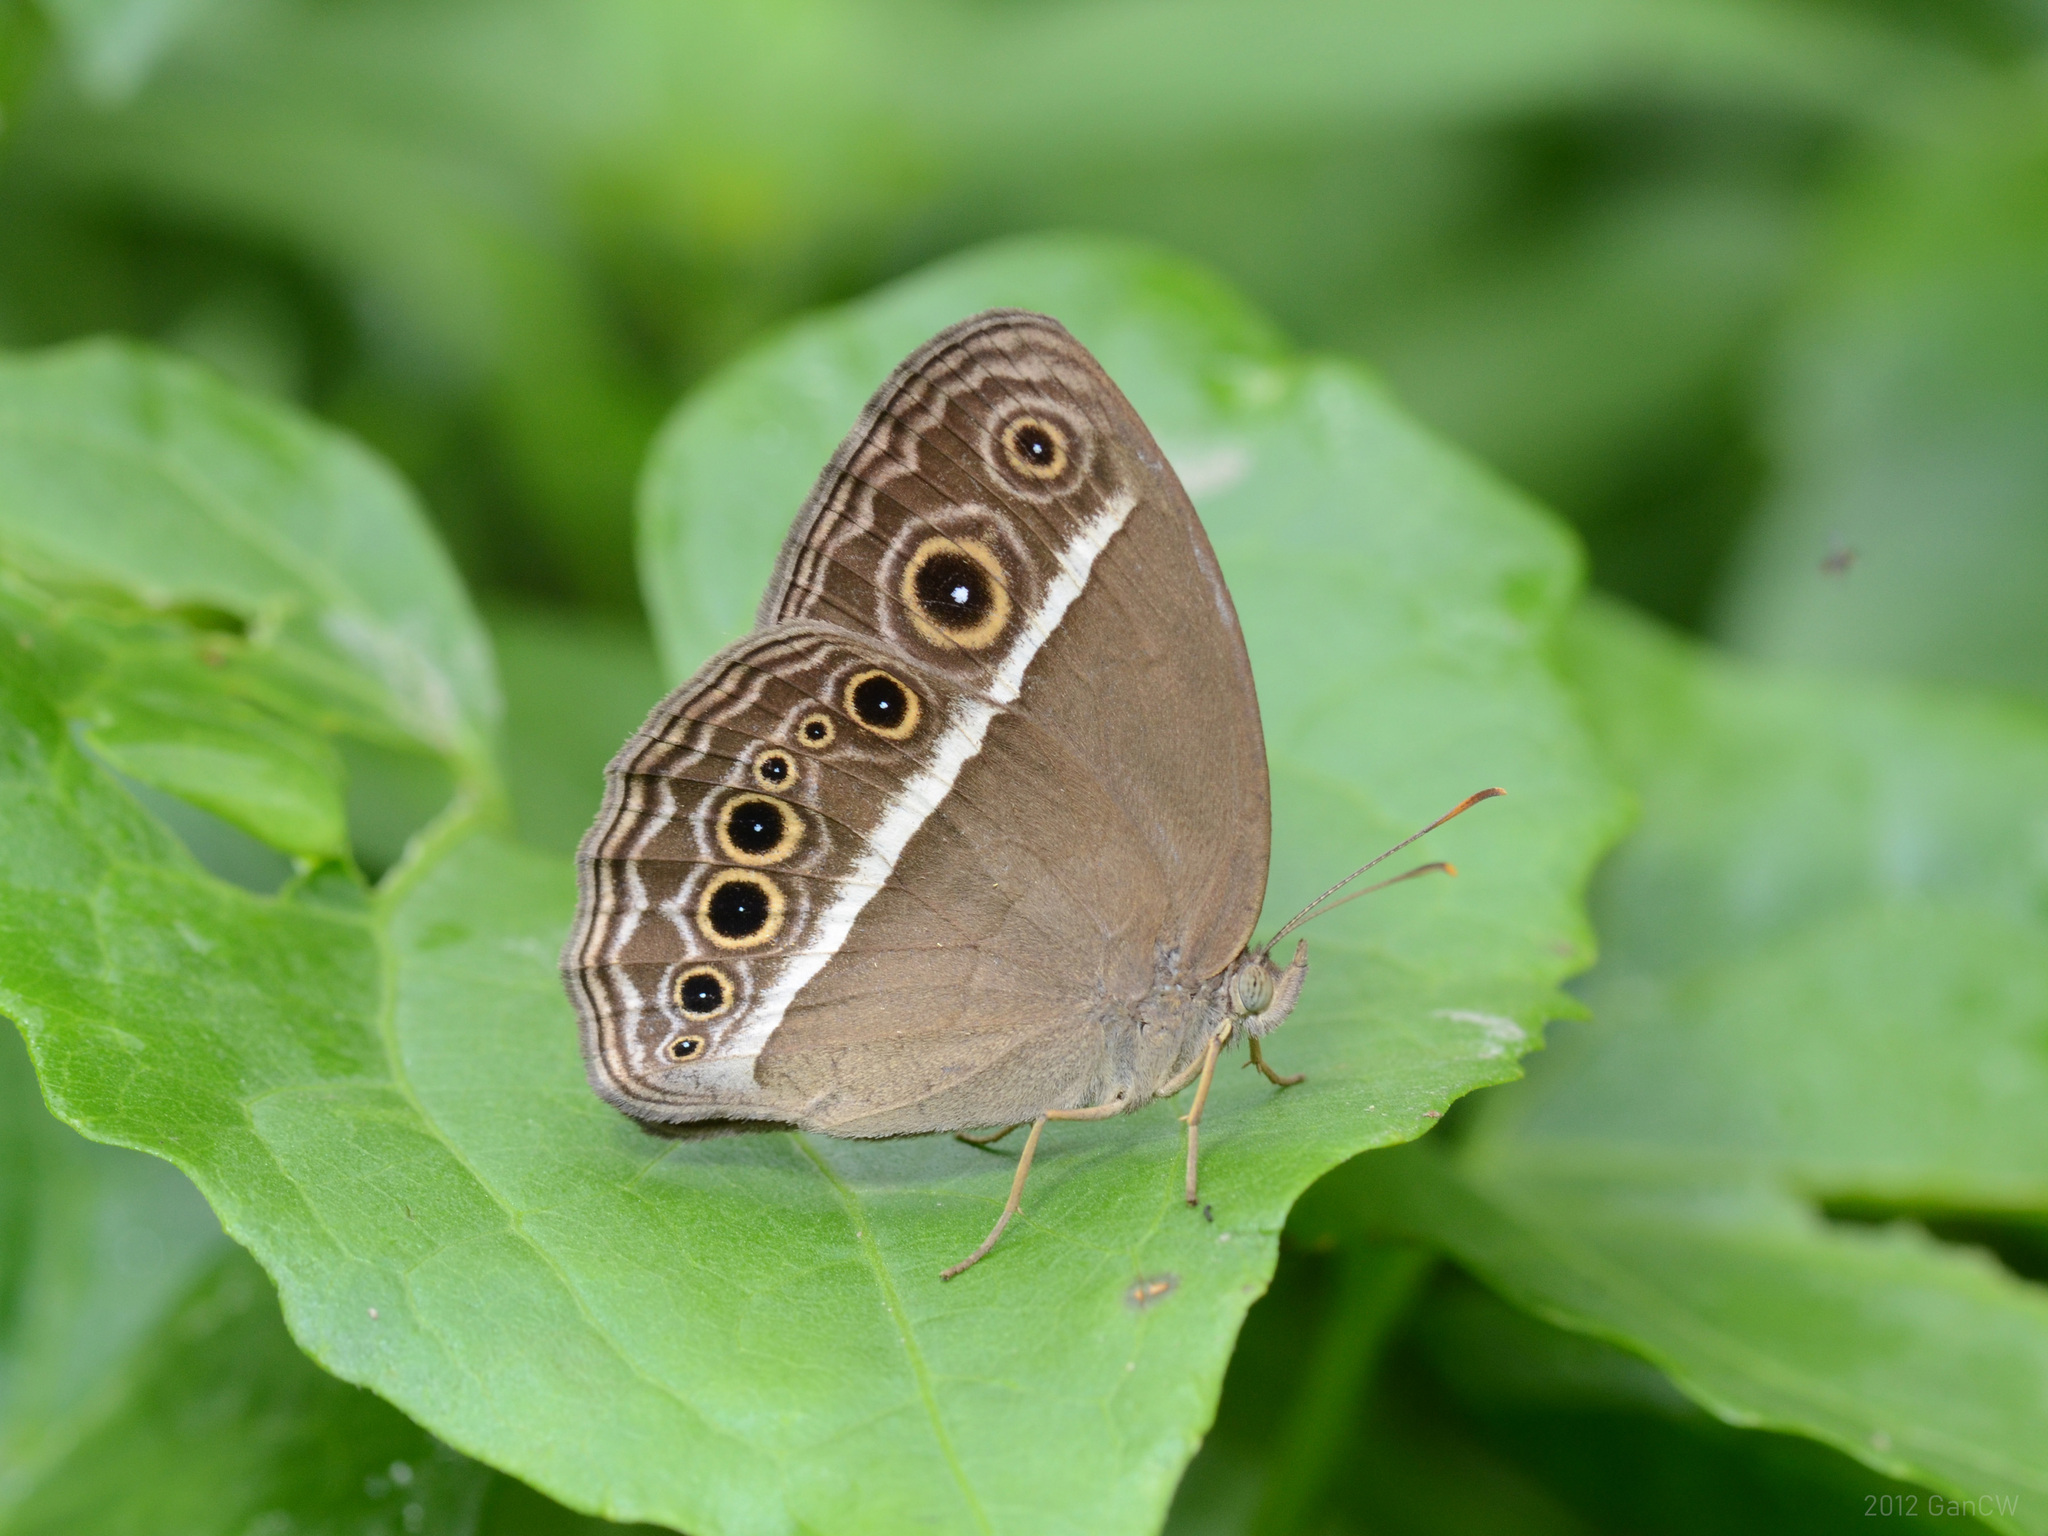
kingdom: Animalia
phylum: Arthropoda
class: Insecta
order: Lepidoptera
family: Nymphalidae
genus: Mycalesis
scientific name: Mycalesis mineus
